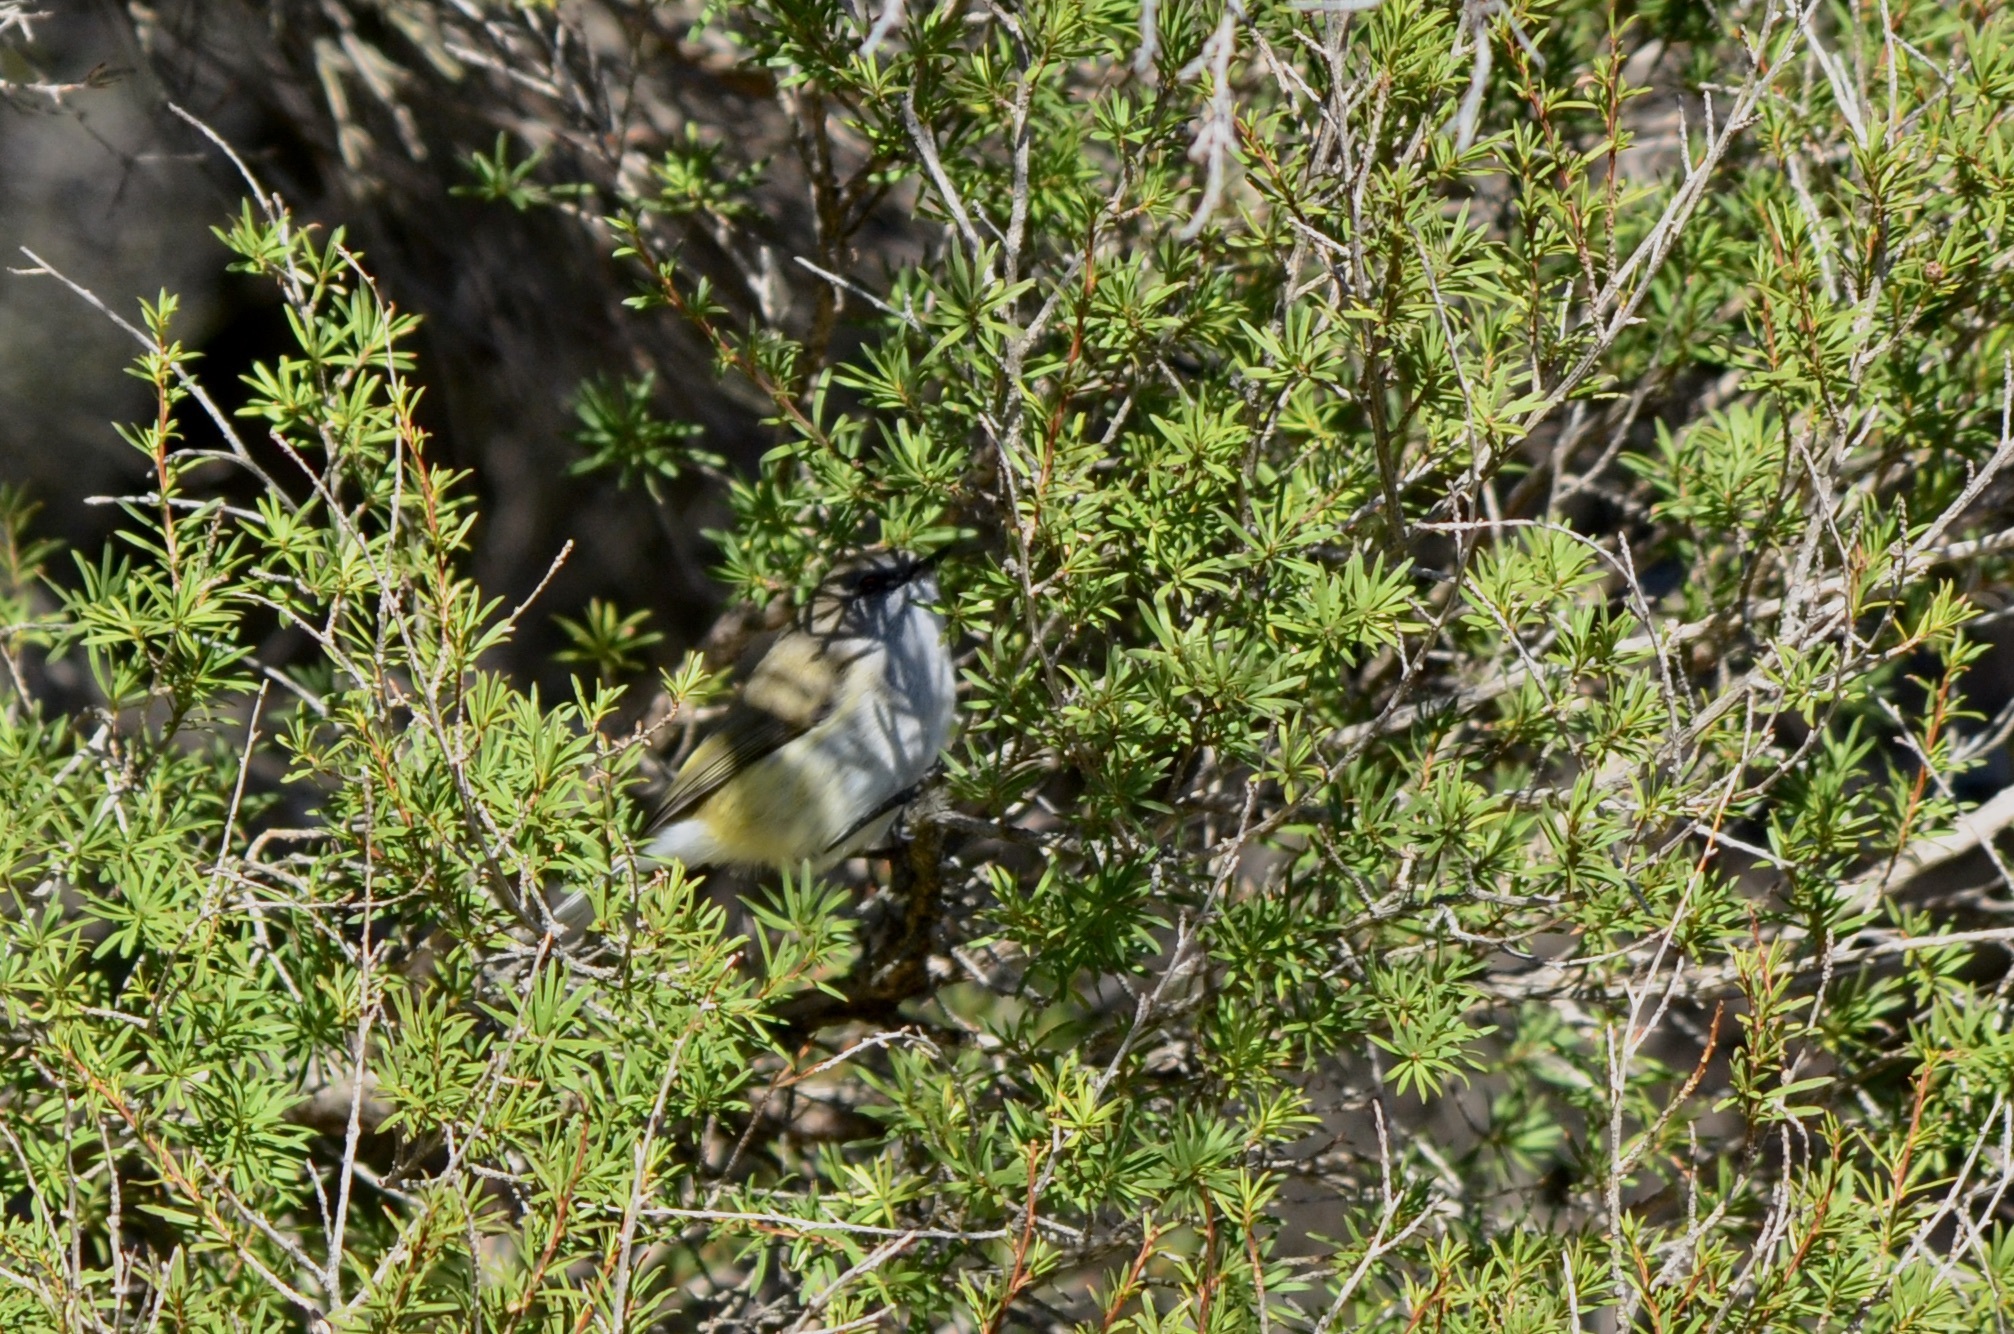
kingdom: Animalia
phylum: Chordata
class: Aves
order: Passeriformes
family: Acanthizidae
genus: Gerygone
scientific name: Gerygone igata
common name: Grey gerygone
